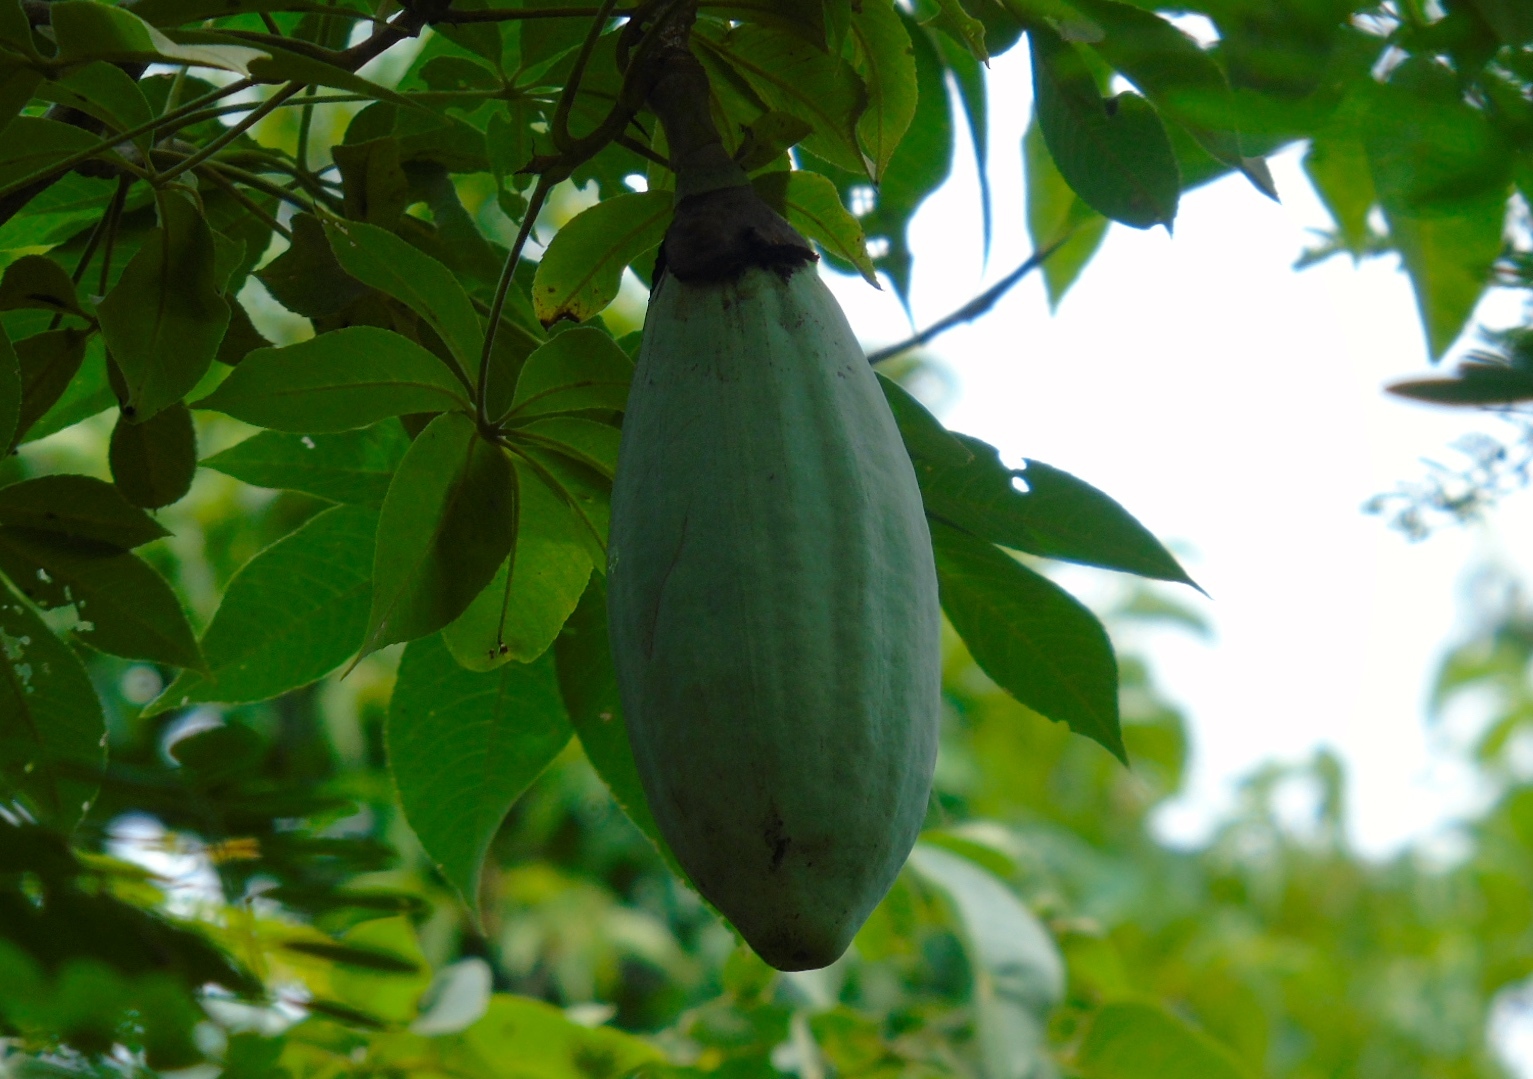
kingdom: Plantae
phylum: Tracheophyta
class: Magnoliopsida
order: Malvales
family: Malvaceae
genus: Ceiba
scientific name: Ceiba aesculifolia
